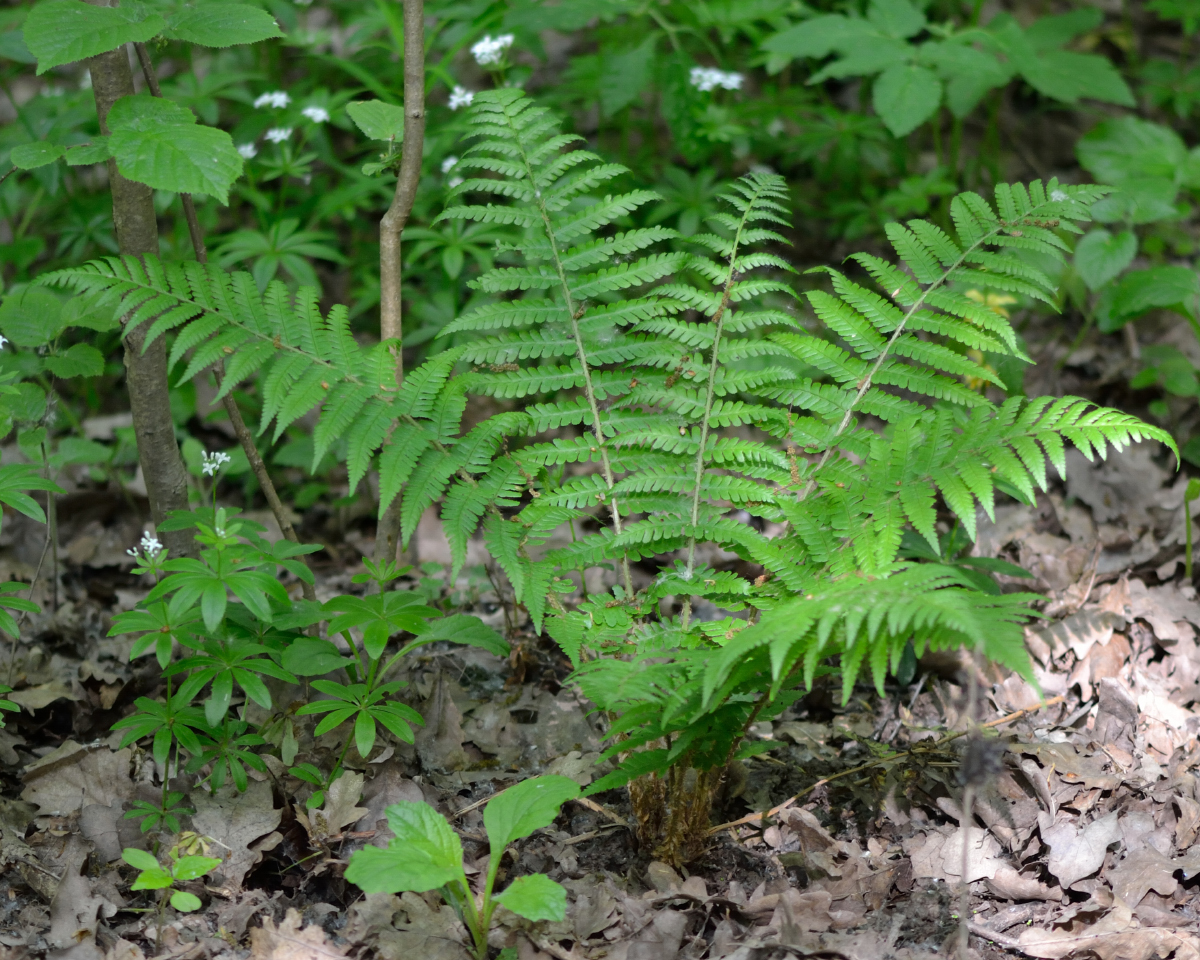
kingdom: Plantae
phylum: Tracheophyta
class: Polypodiopsida
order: Polypodiales
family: Dryopteridaceae
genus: Dryopteris
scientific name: Dryopteris filix-mas
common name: Male fern
